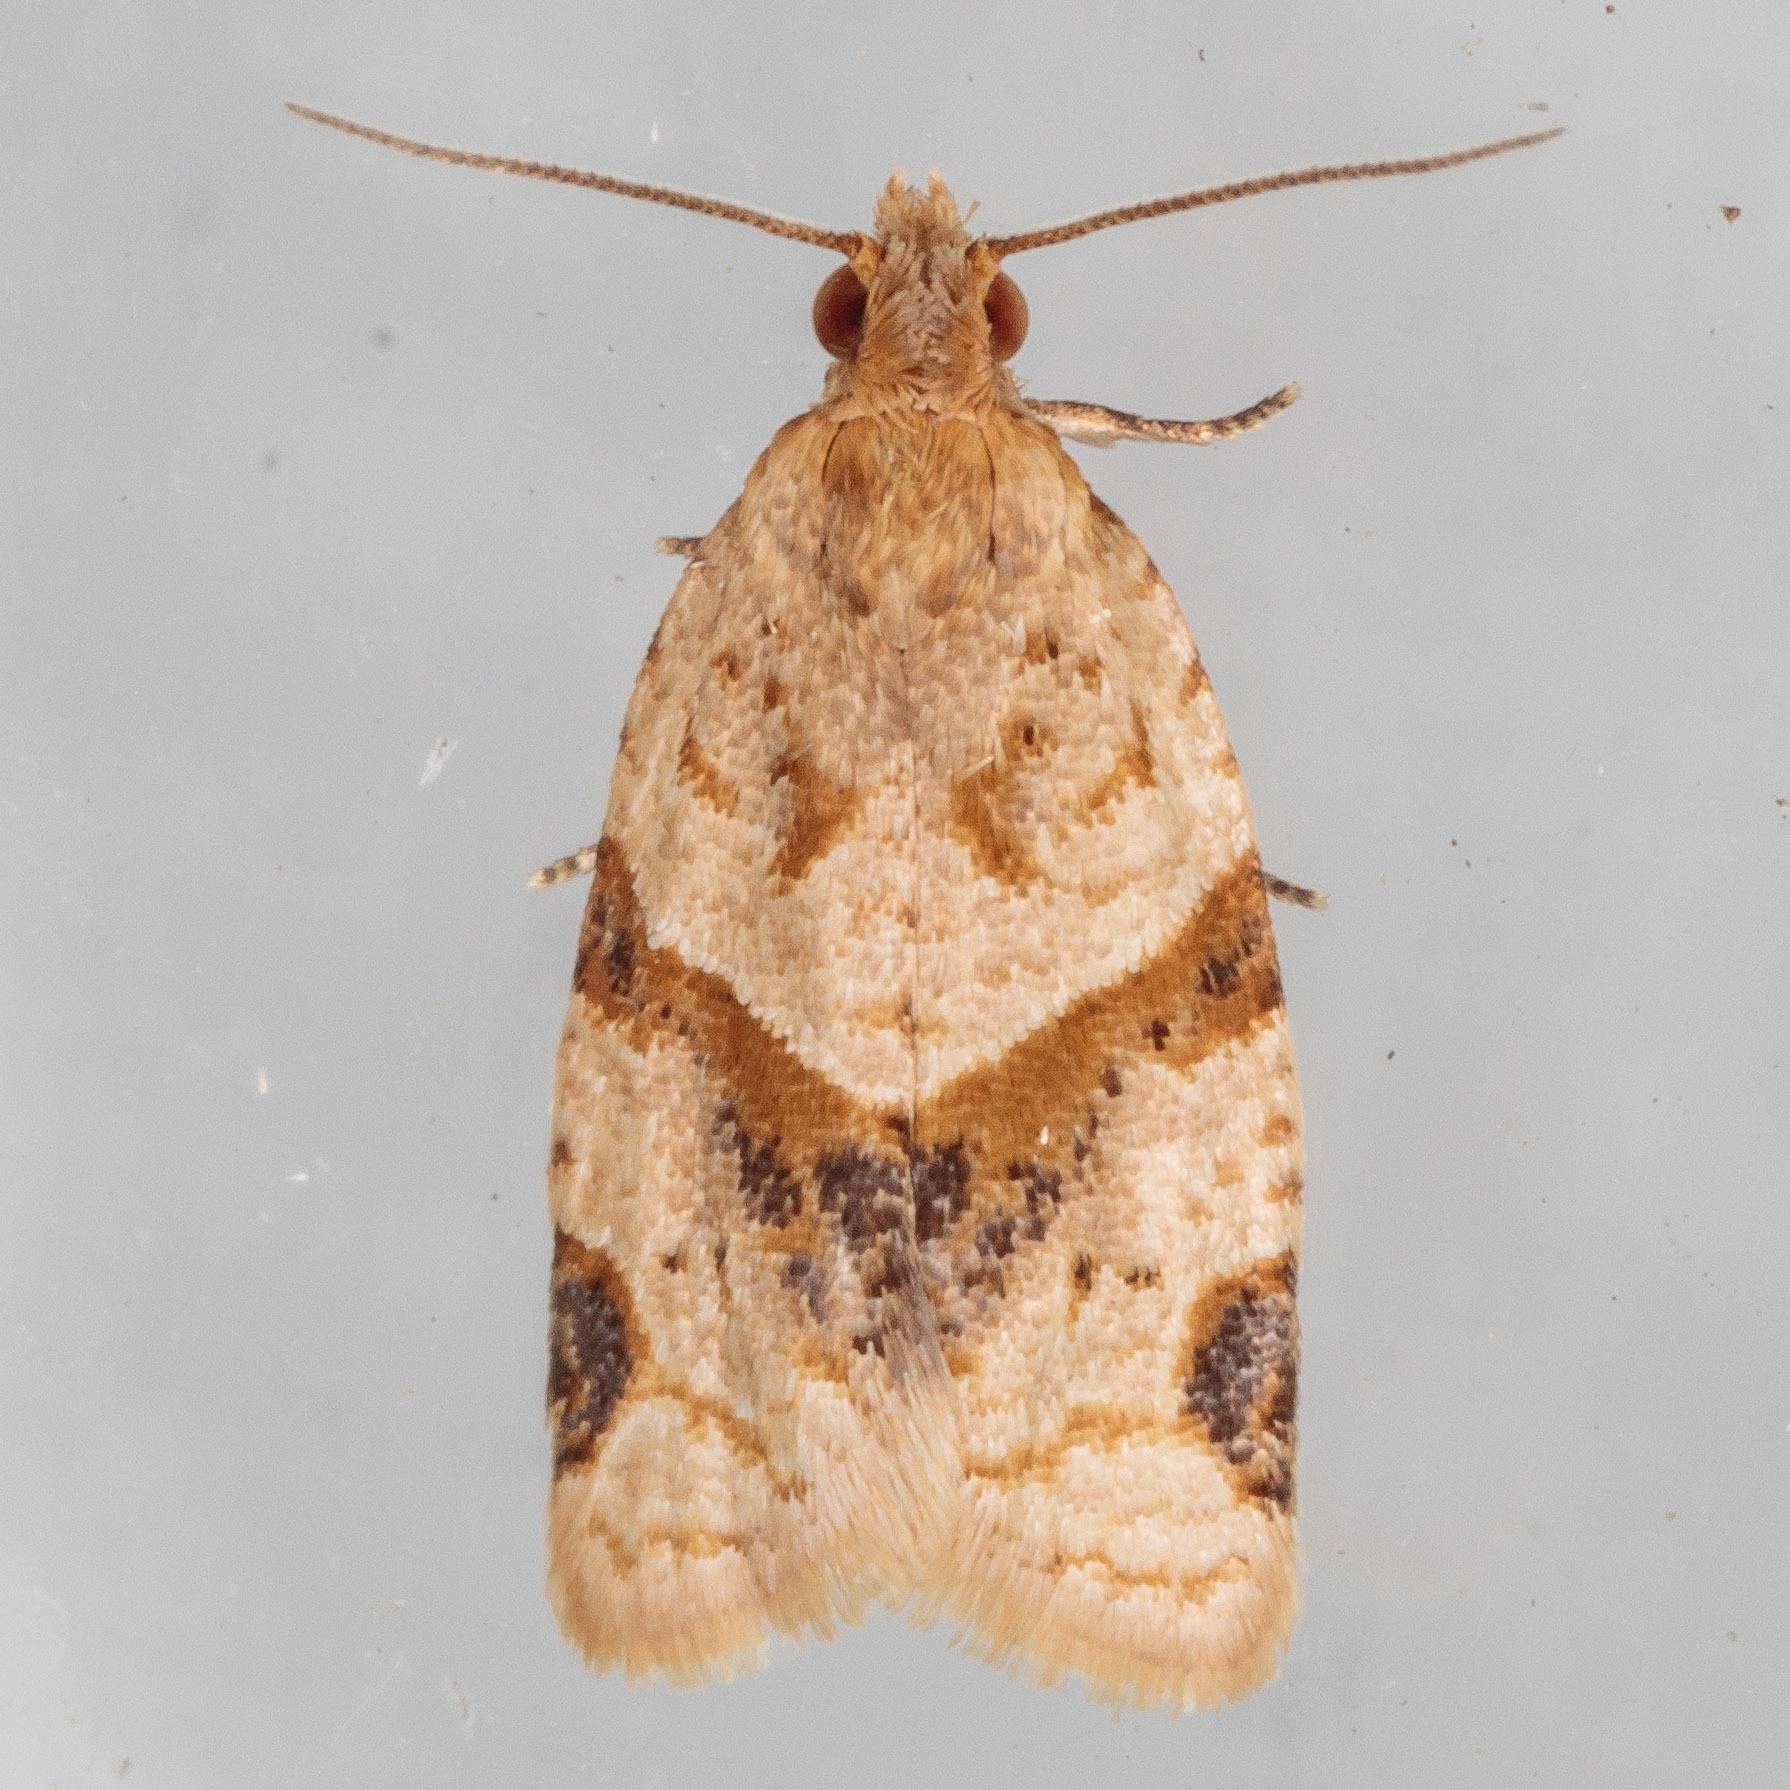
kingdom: Animalia
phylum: Arthropoda
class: Insecta
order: Lepidoptera
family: Tortricidae
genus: Clepsis
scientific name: Clepsis peritana
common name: Garden tortrix
